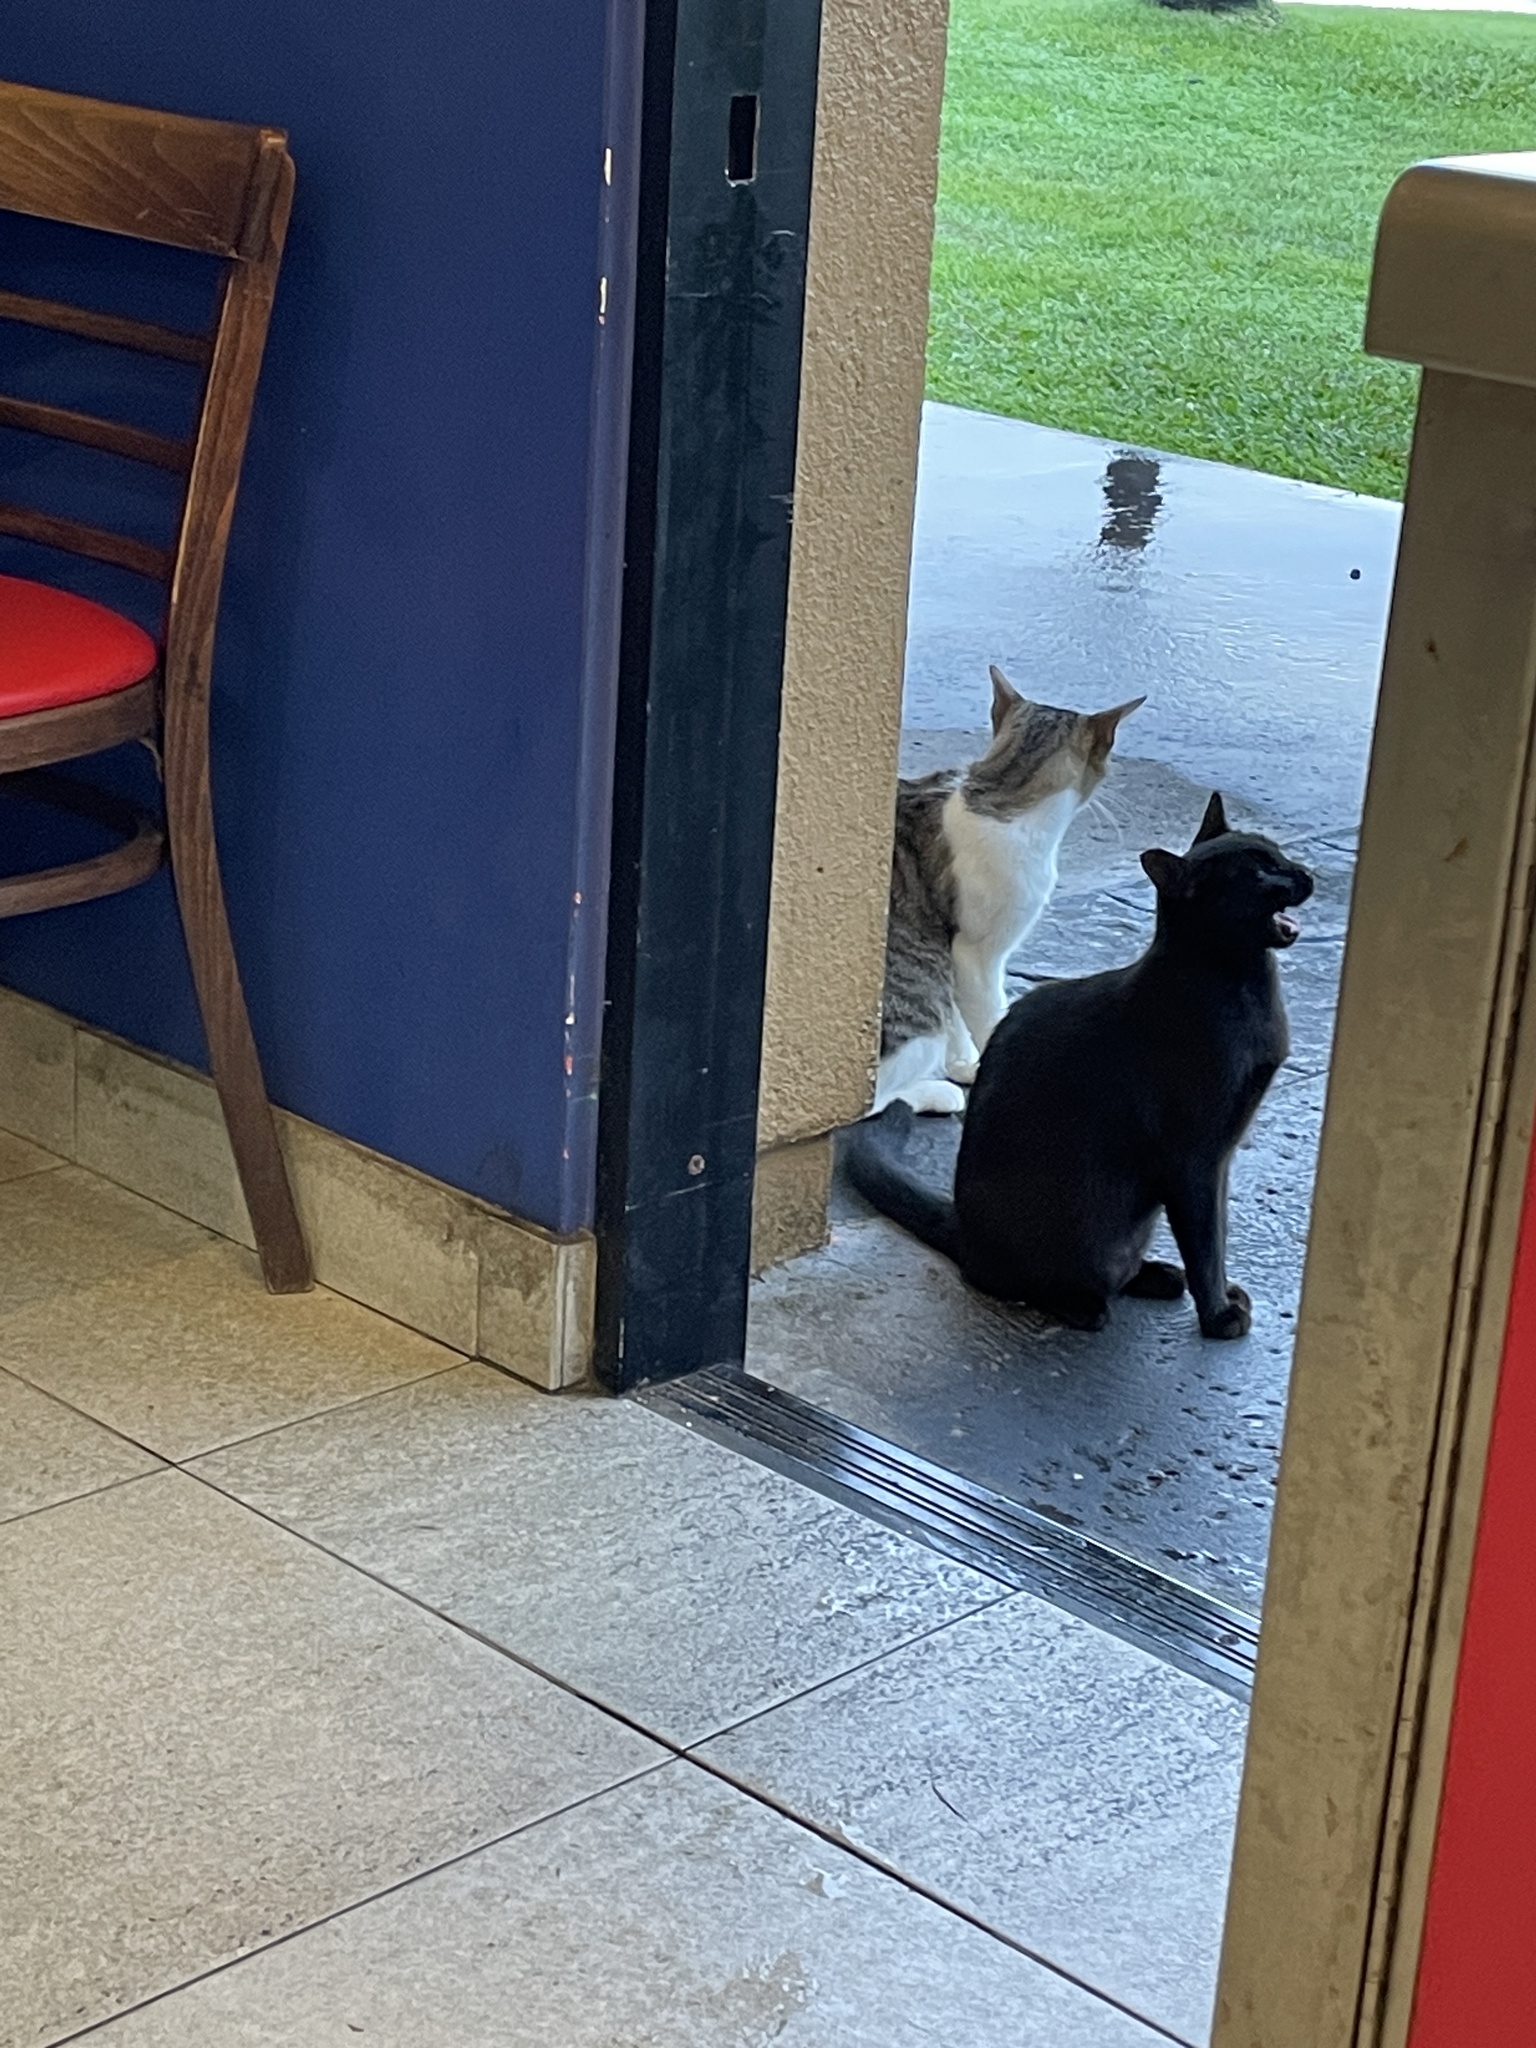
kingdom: Animalia
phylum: Chordata
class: Mammalia
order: Carnivora
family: Felidae
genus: Felis
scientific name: Felis catus
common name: Domestic cat
